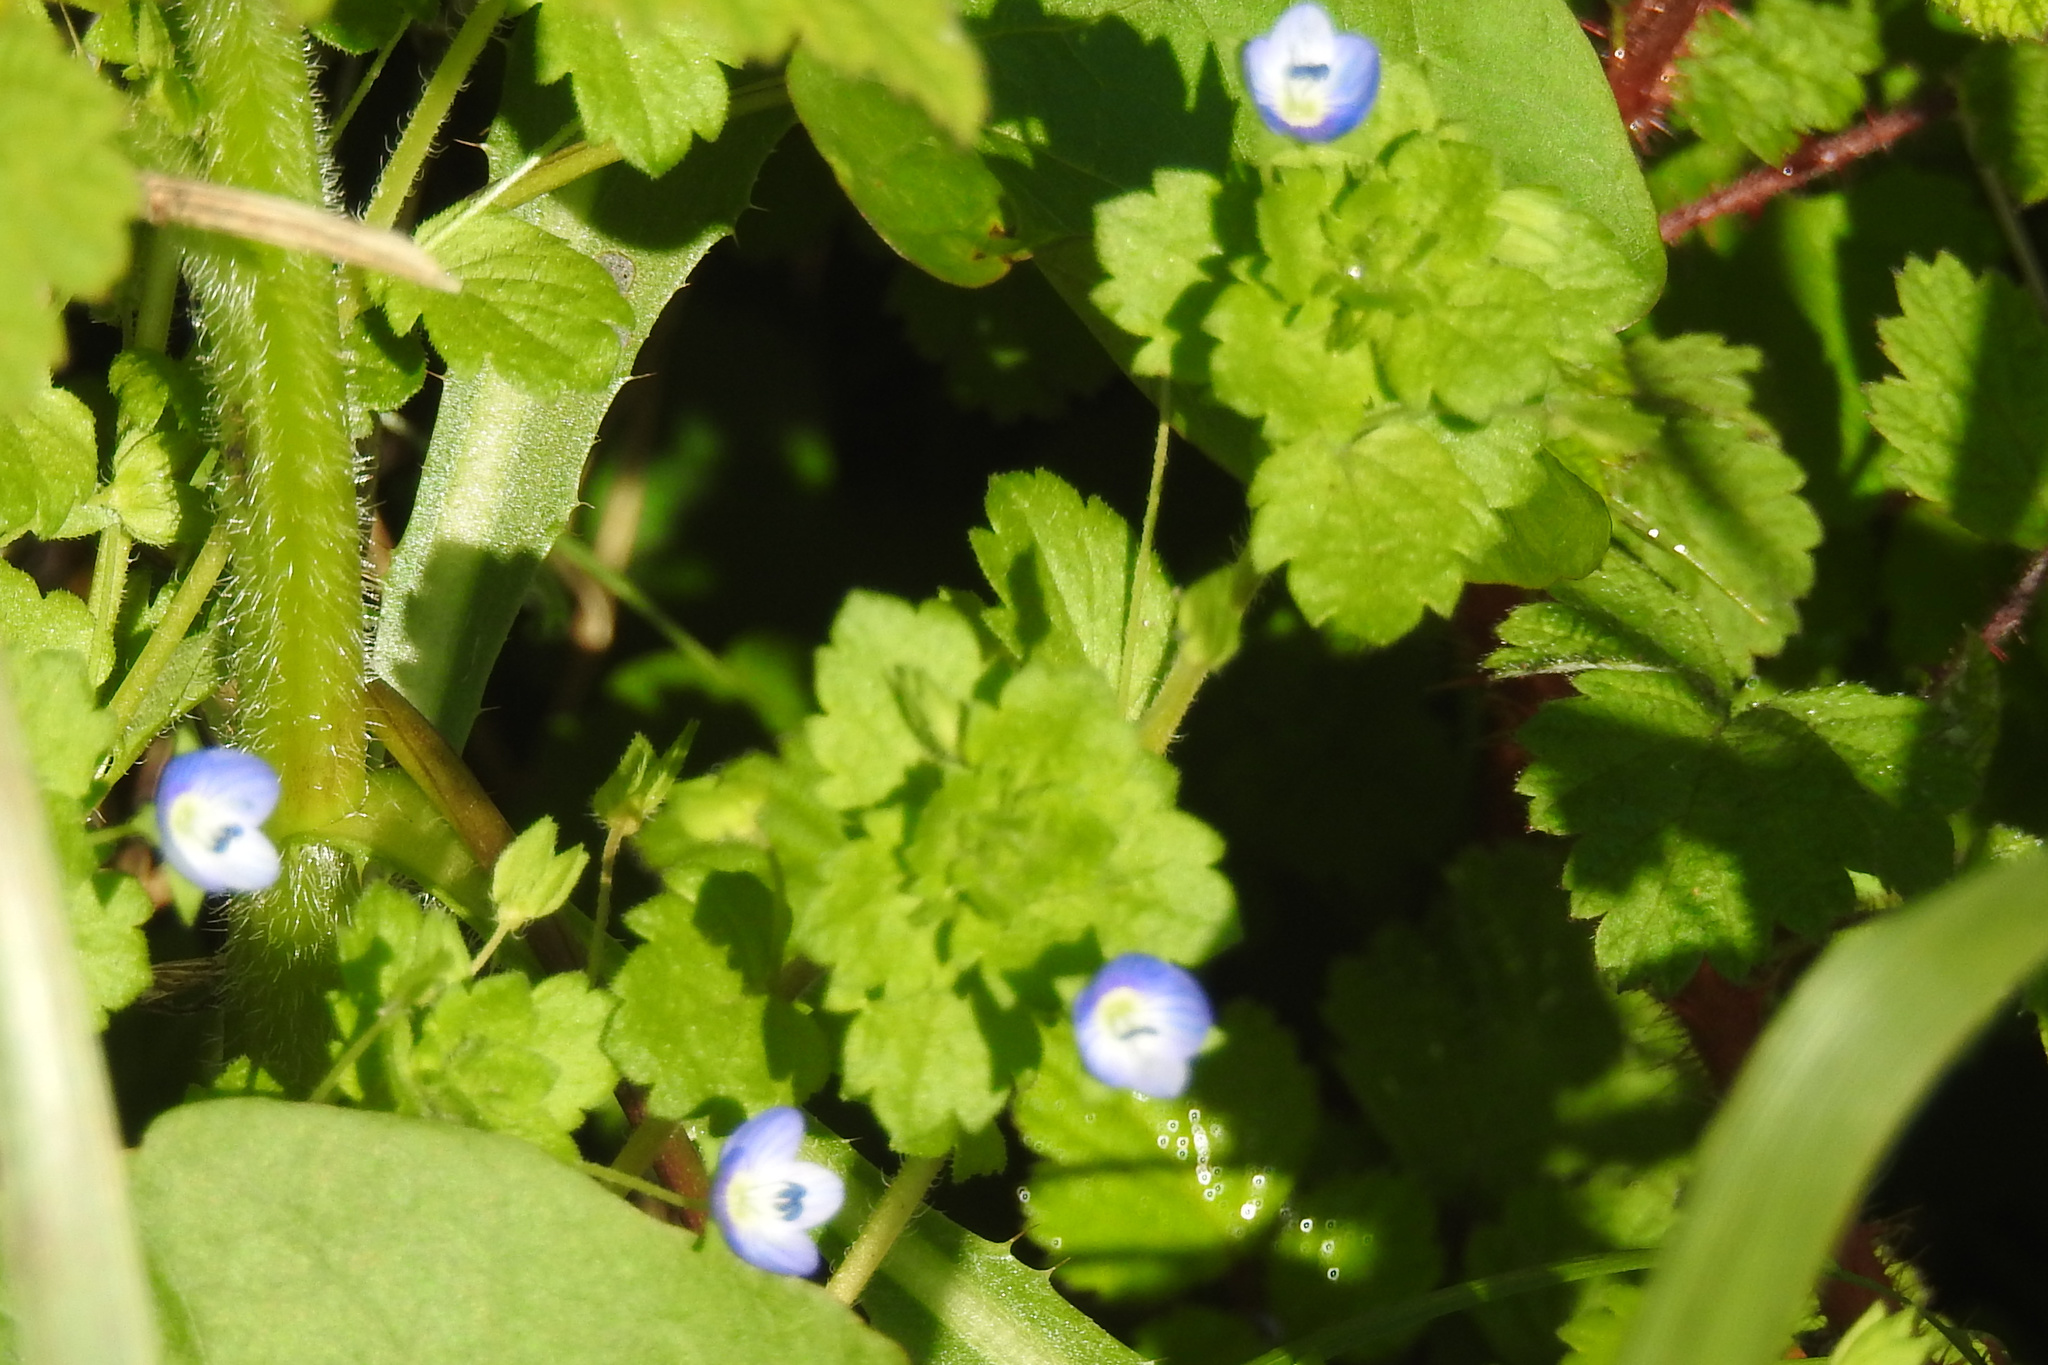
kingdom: Plantae
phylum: Tracheophyta
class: Magnoliopsida
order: Lamiales
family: Plantaginaceae
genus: Veronica
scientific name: Veronica persica
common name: Common field-speedwell
